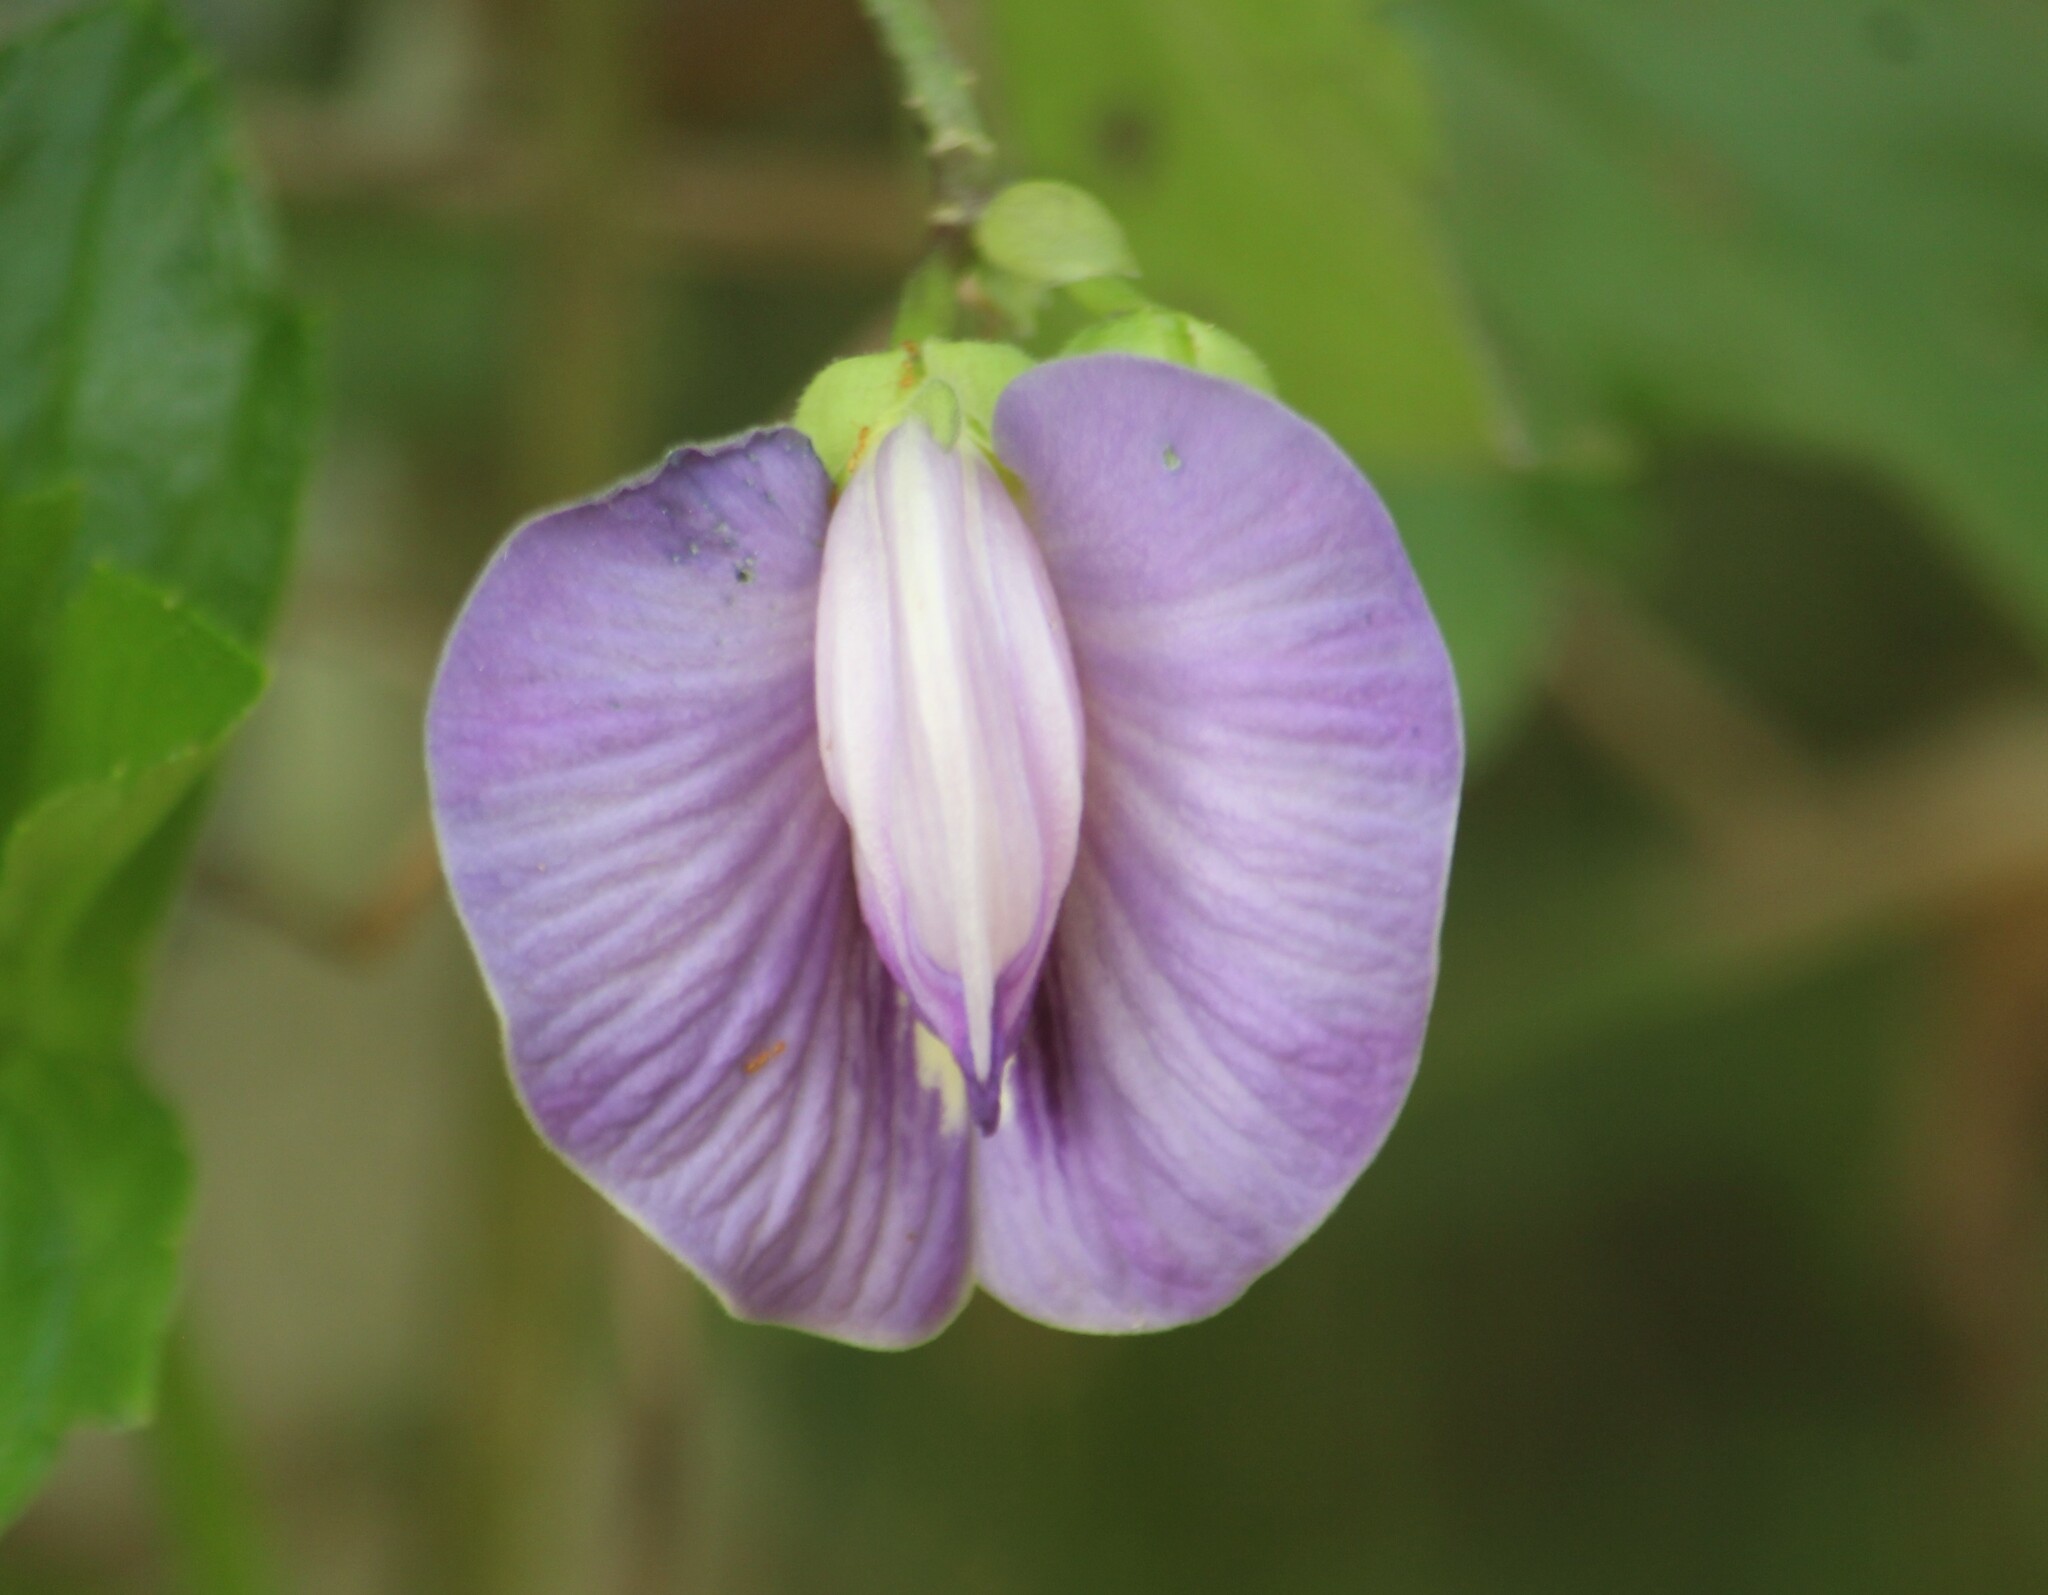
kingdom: Plantae
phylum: Tracheophyta
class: Magnoliopsida
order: Fabales
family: Fabaceae
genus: Centrosema
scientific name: Centrosema molle
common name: Soft butterfly pea
